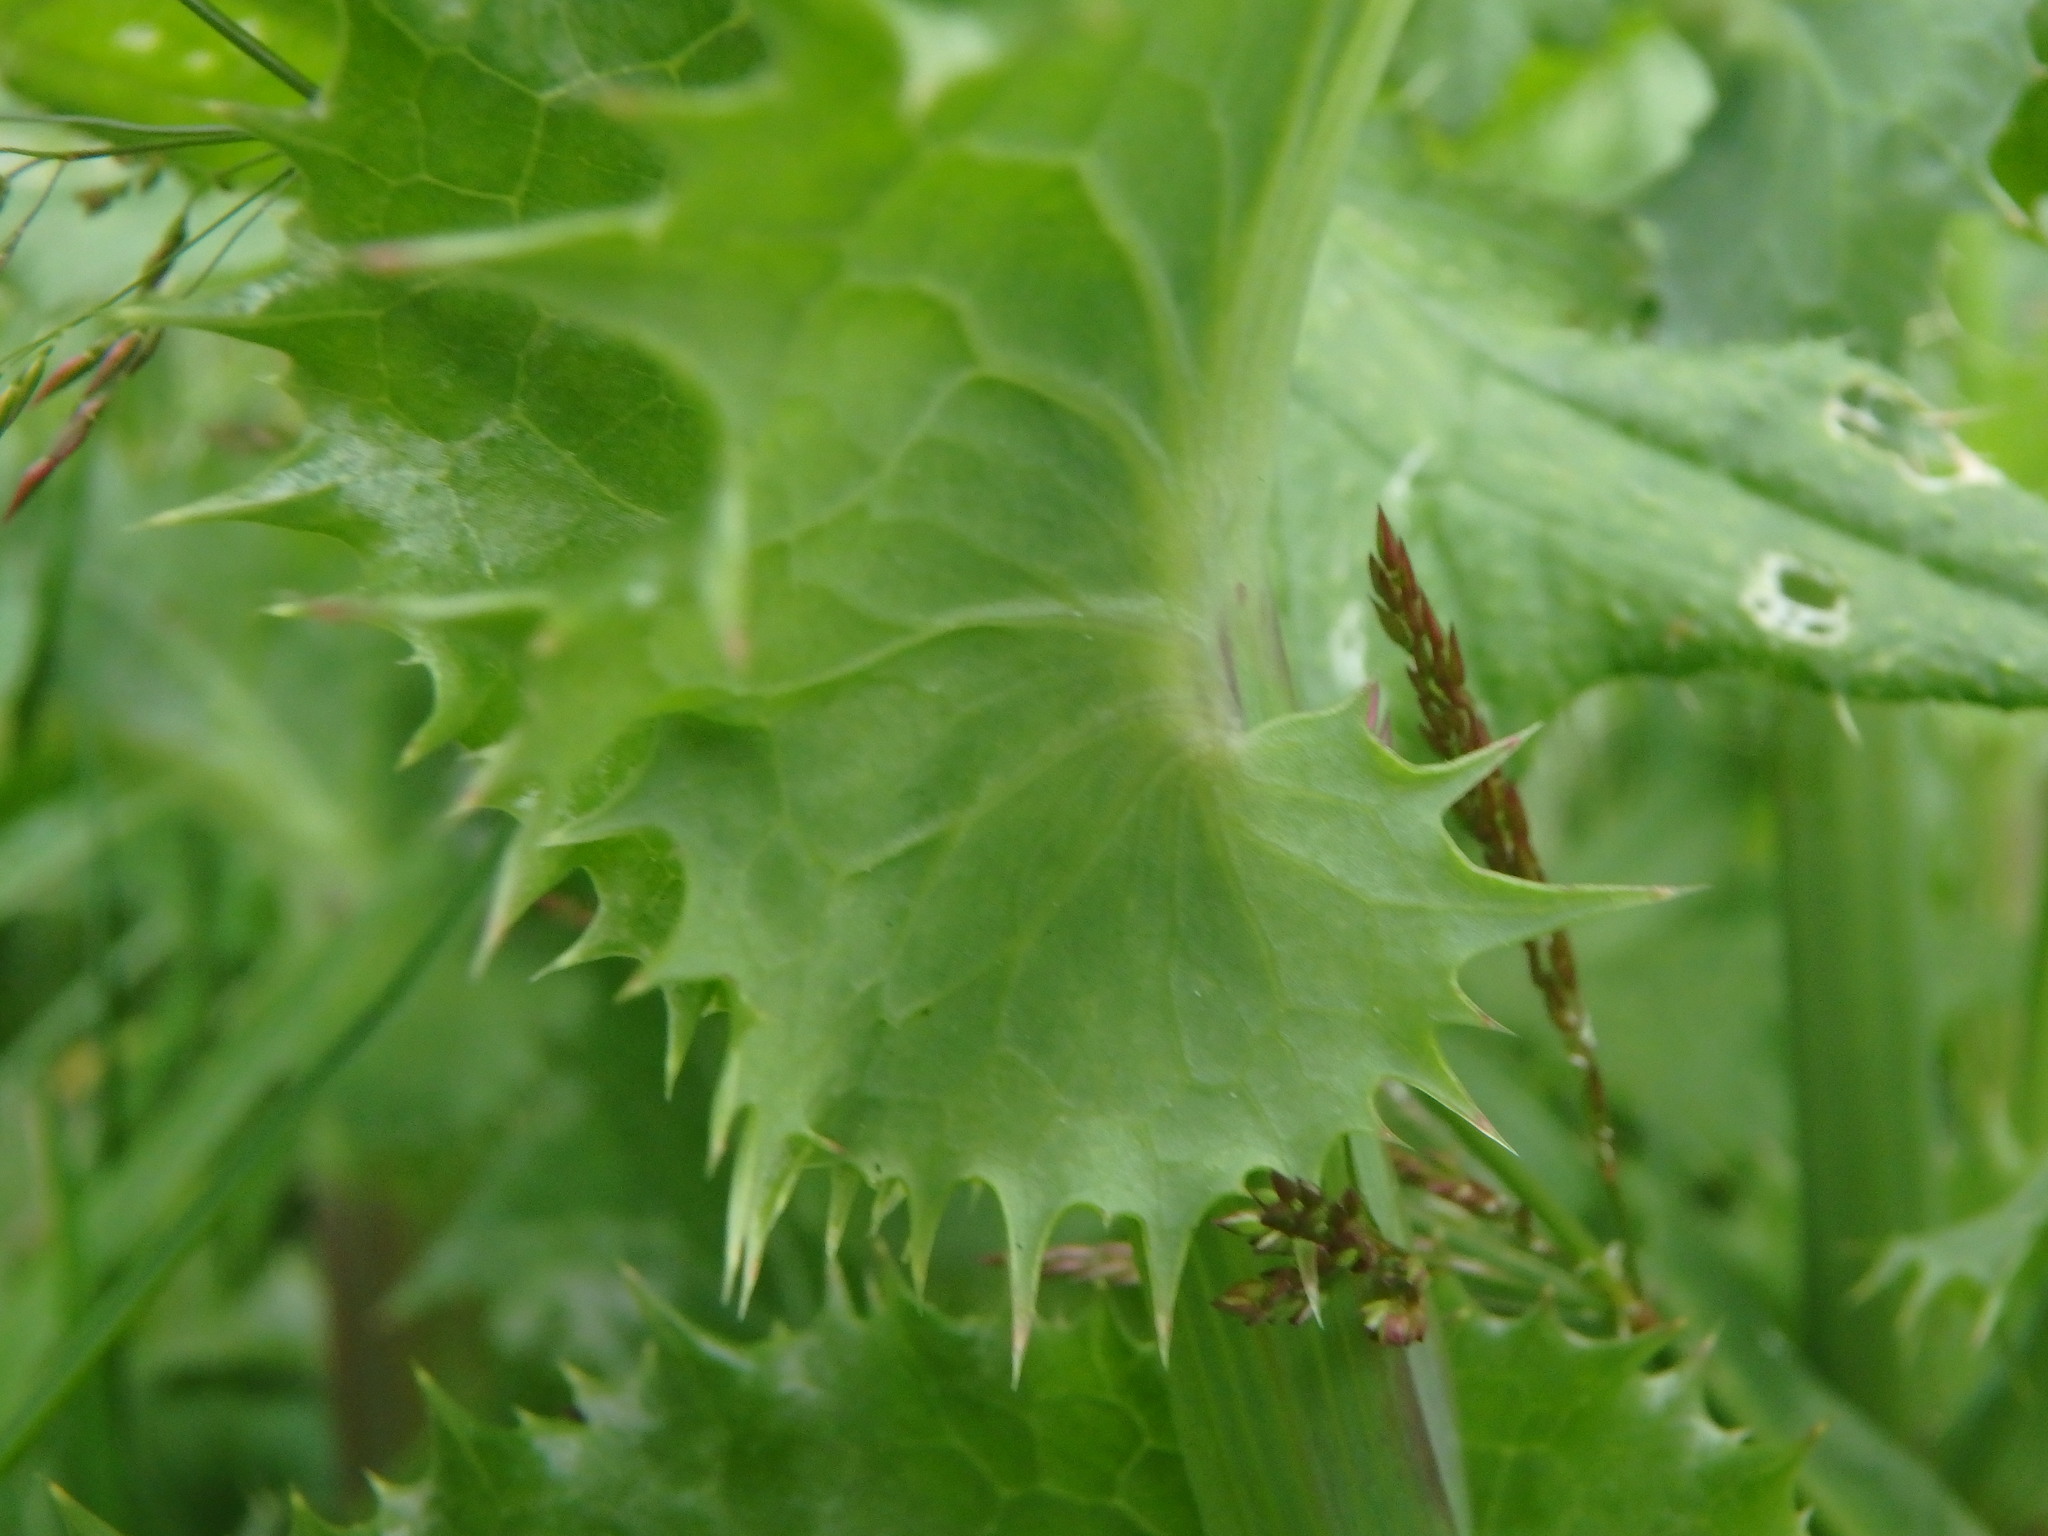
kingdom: Plantae
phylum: Tracheophyta
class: Magnoliopsida
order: Asterales
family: Asteraceae
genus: Sonchus
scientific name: Sonchus asper
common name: Prickly sow-thistle
